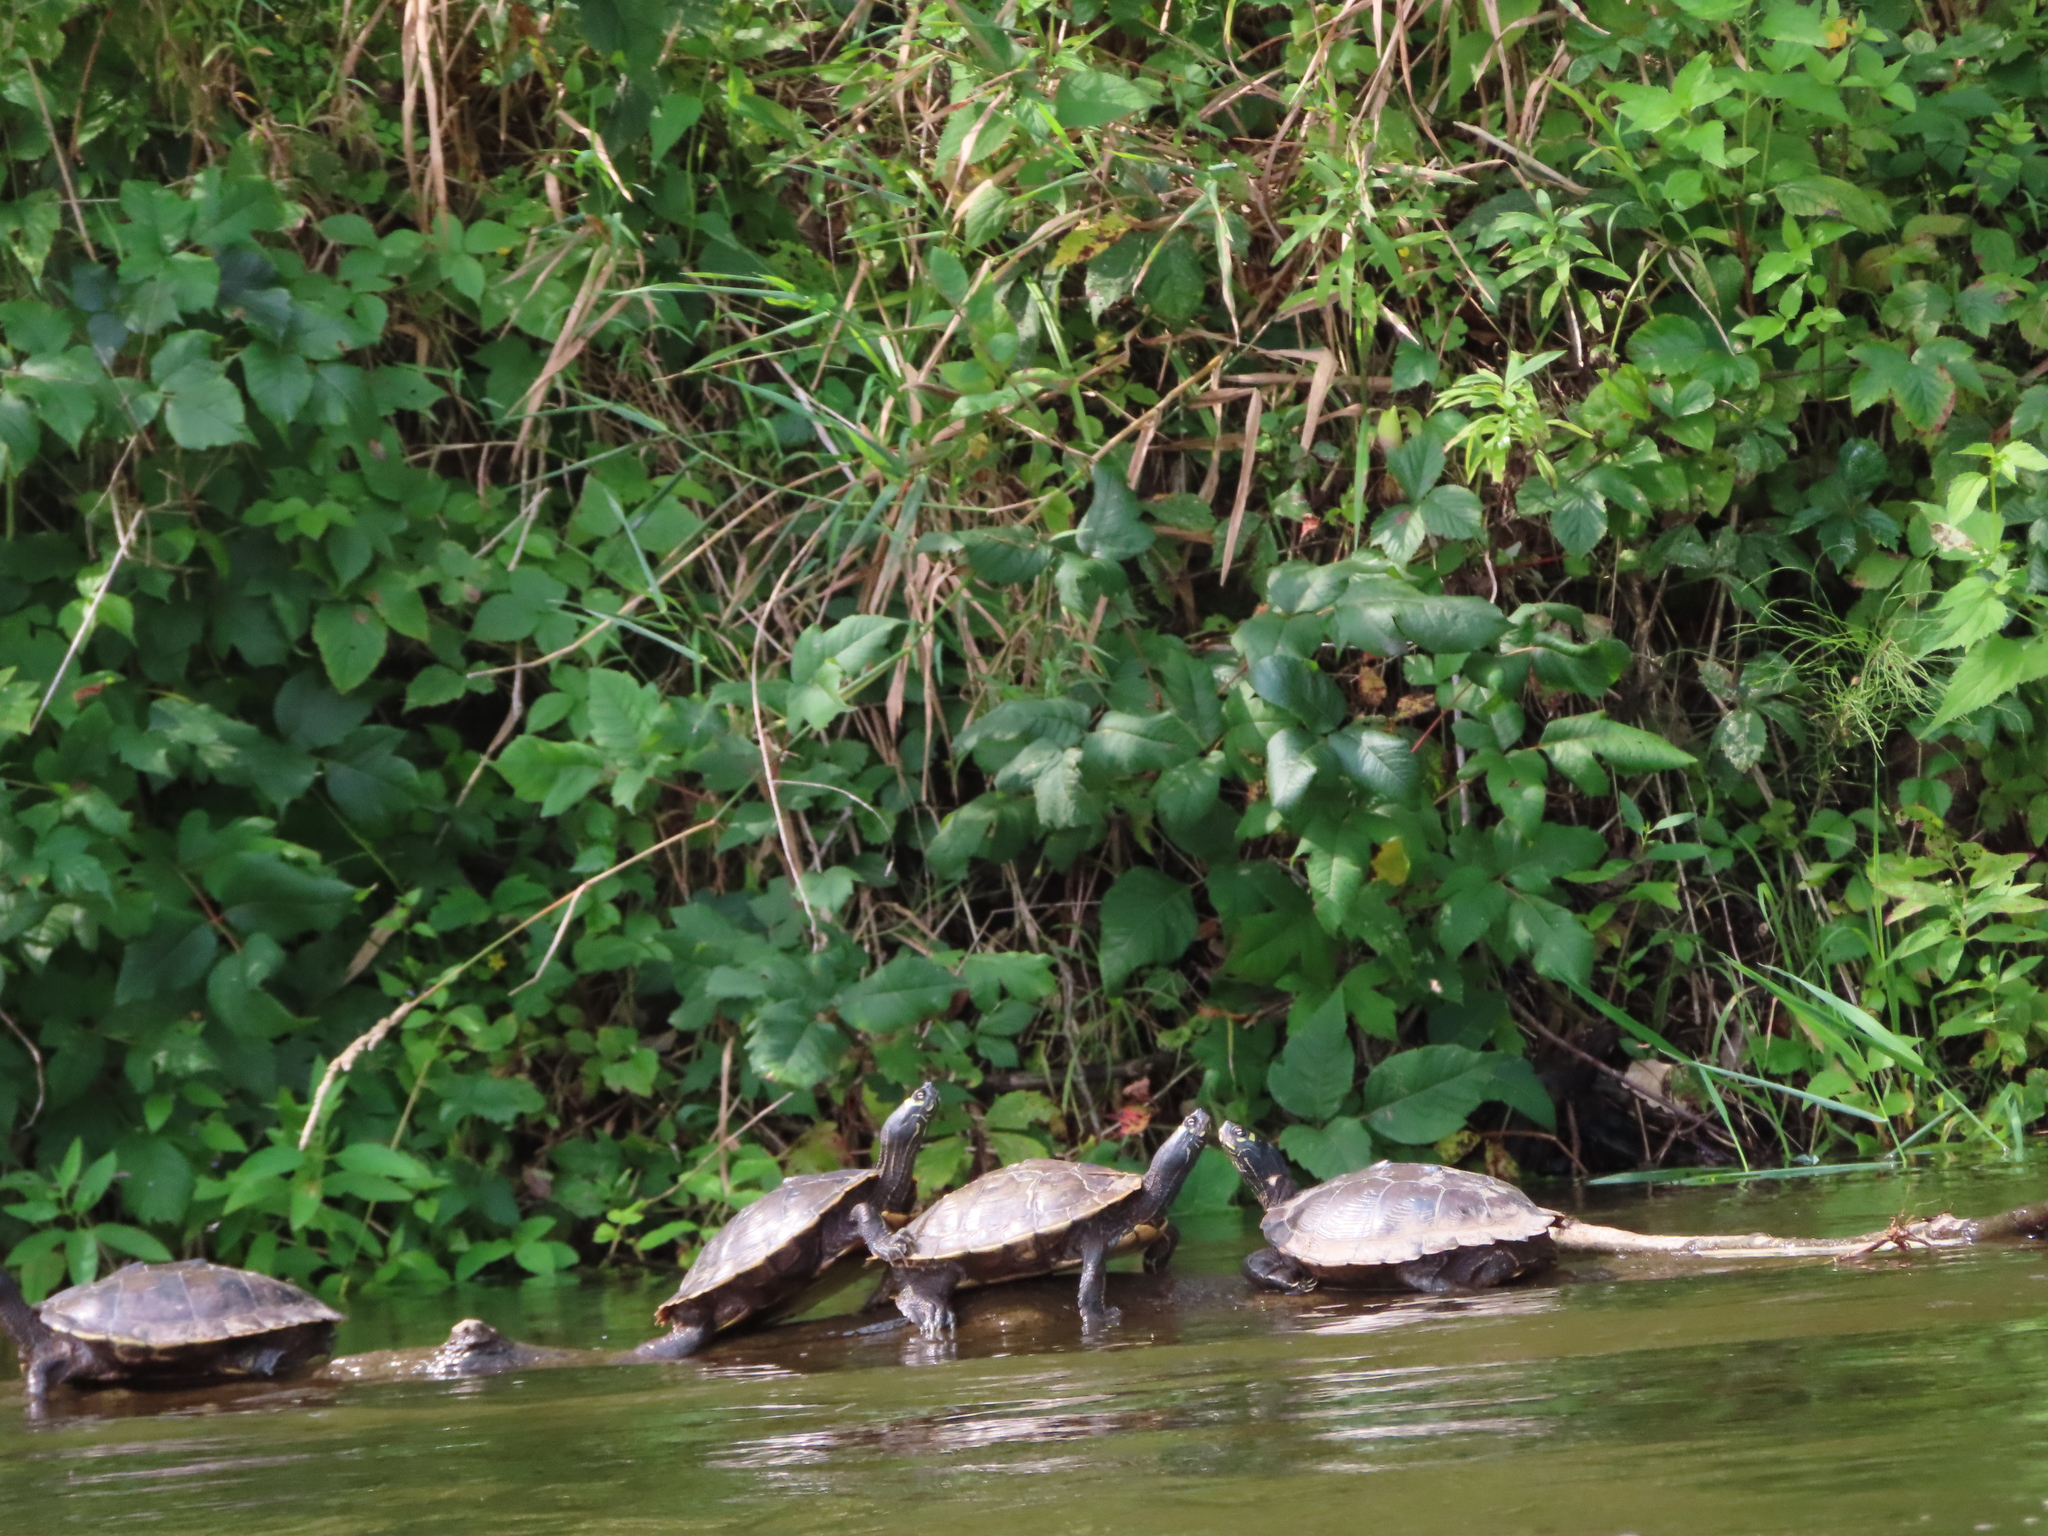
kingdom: Animalia
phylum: Chordata
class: Testudines
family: Emydidae
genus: Graptemys
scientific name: Graptemys ouachitensis
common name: Ouachita map turtle
